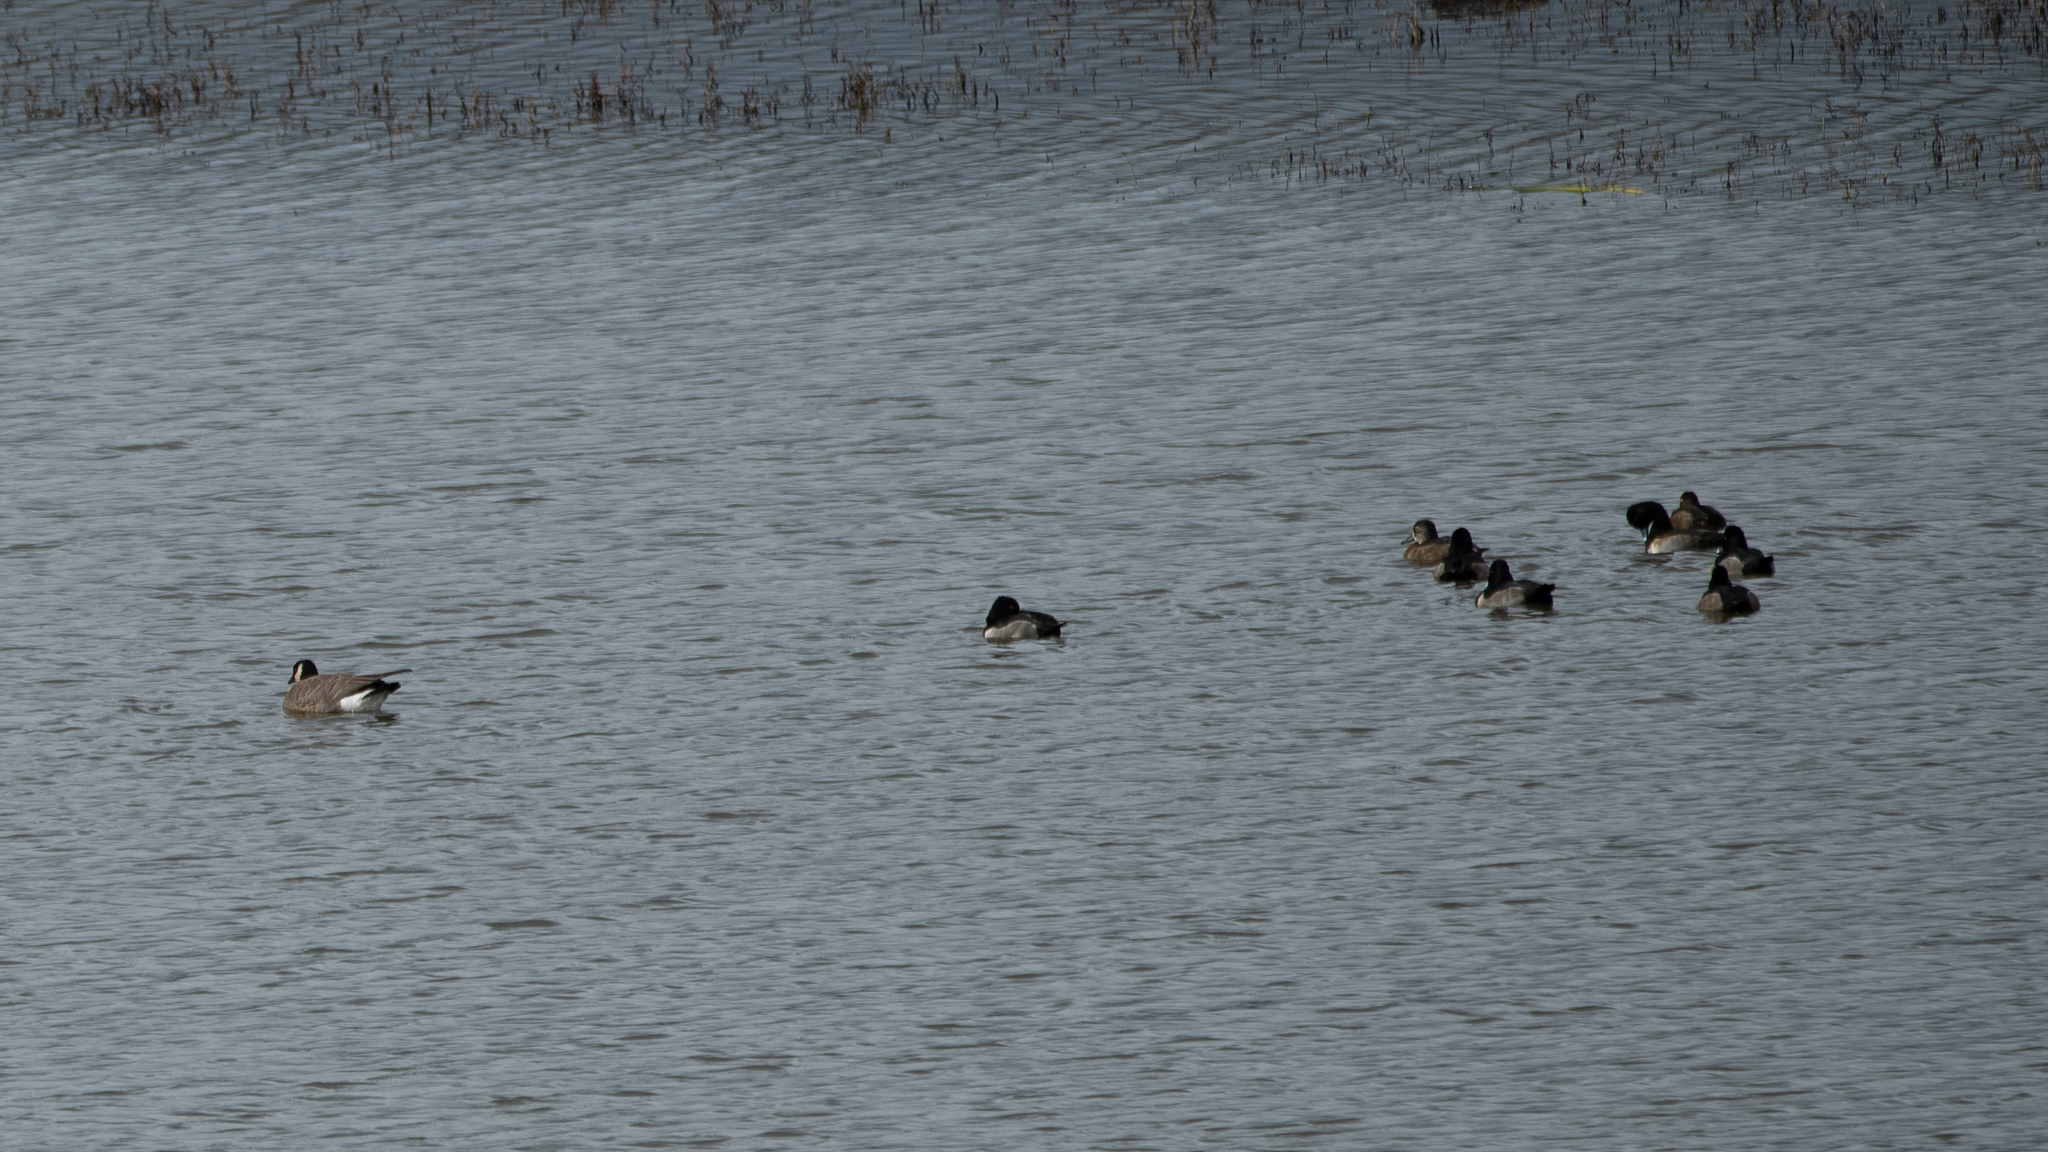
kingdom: Animalia
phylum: Chordata
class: Aves
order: Anseriformes
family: Anatidae
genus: Branta
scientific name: Branta hutchinsii
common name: Cackling goose
